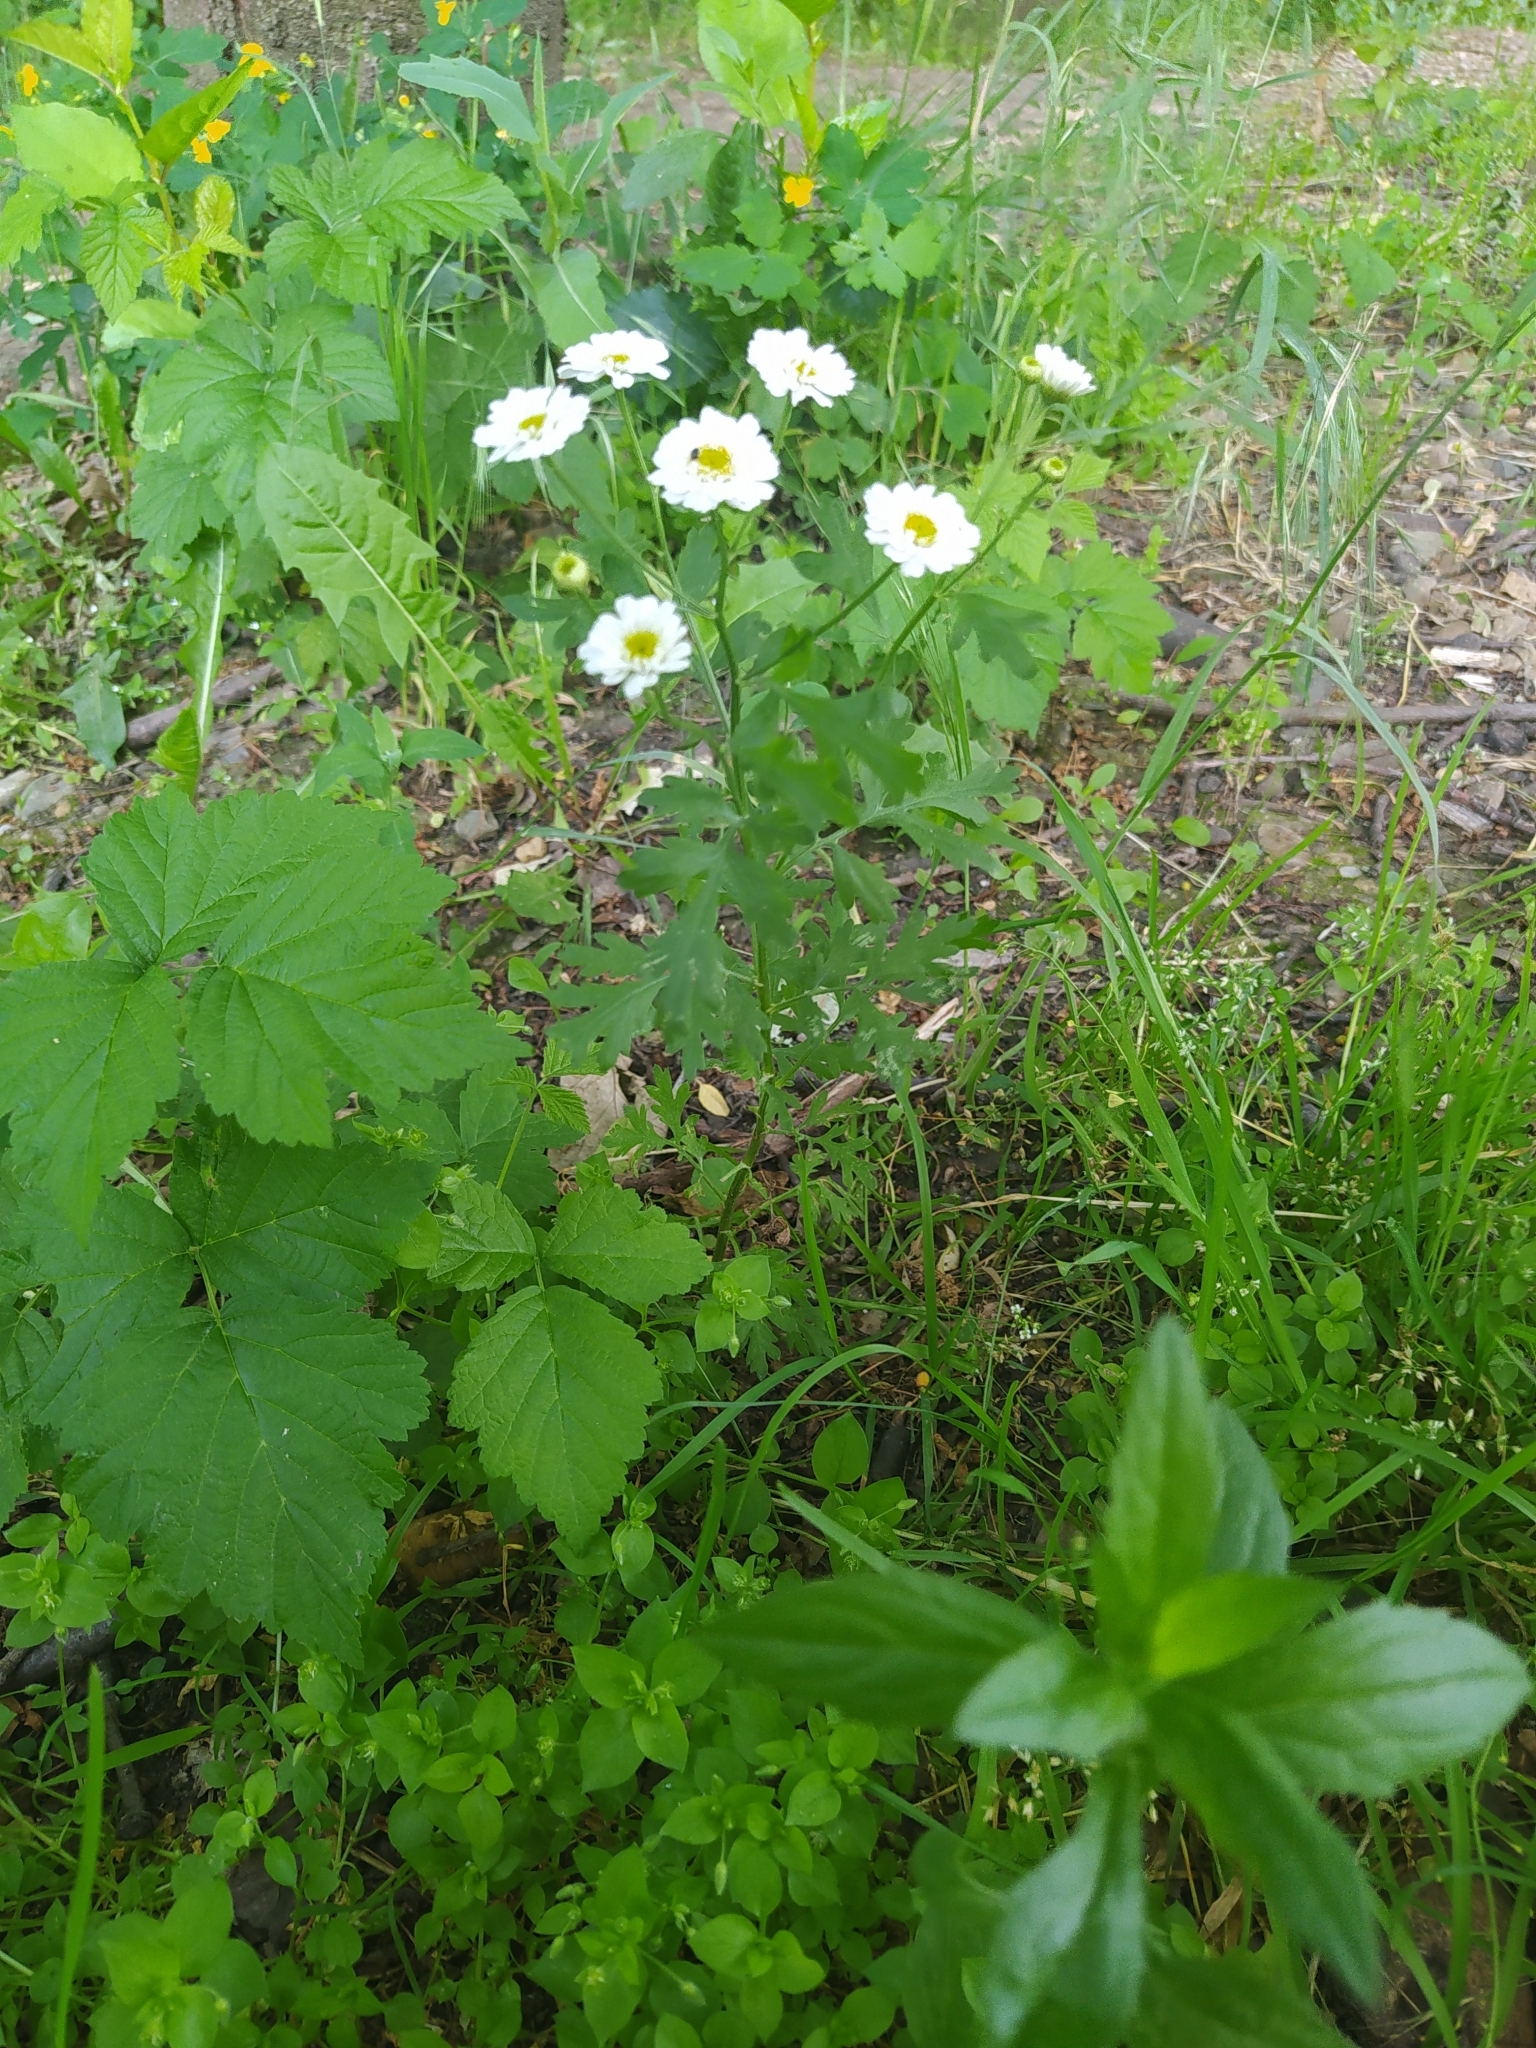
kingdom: Plantae
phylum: Tracheophyta
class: Magnoliopsida
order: Asterales
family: Asteraceae
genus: Tanacetum
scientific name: Tanacetum parthenium
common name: Feverfew
